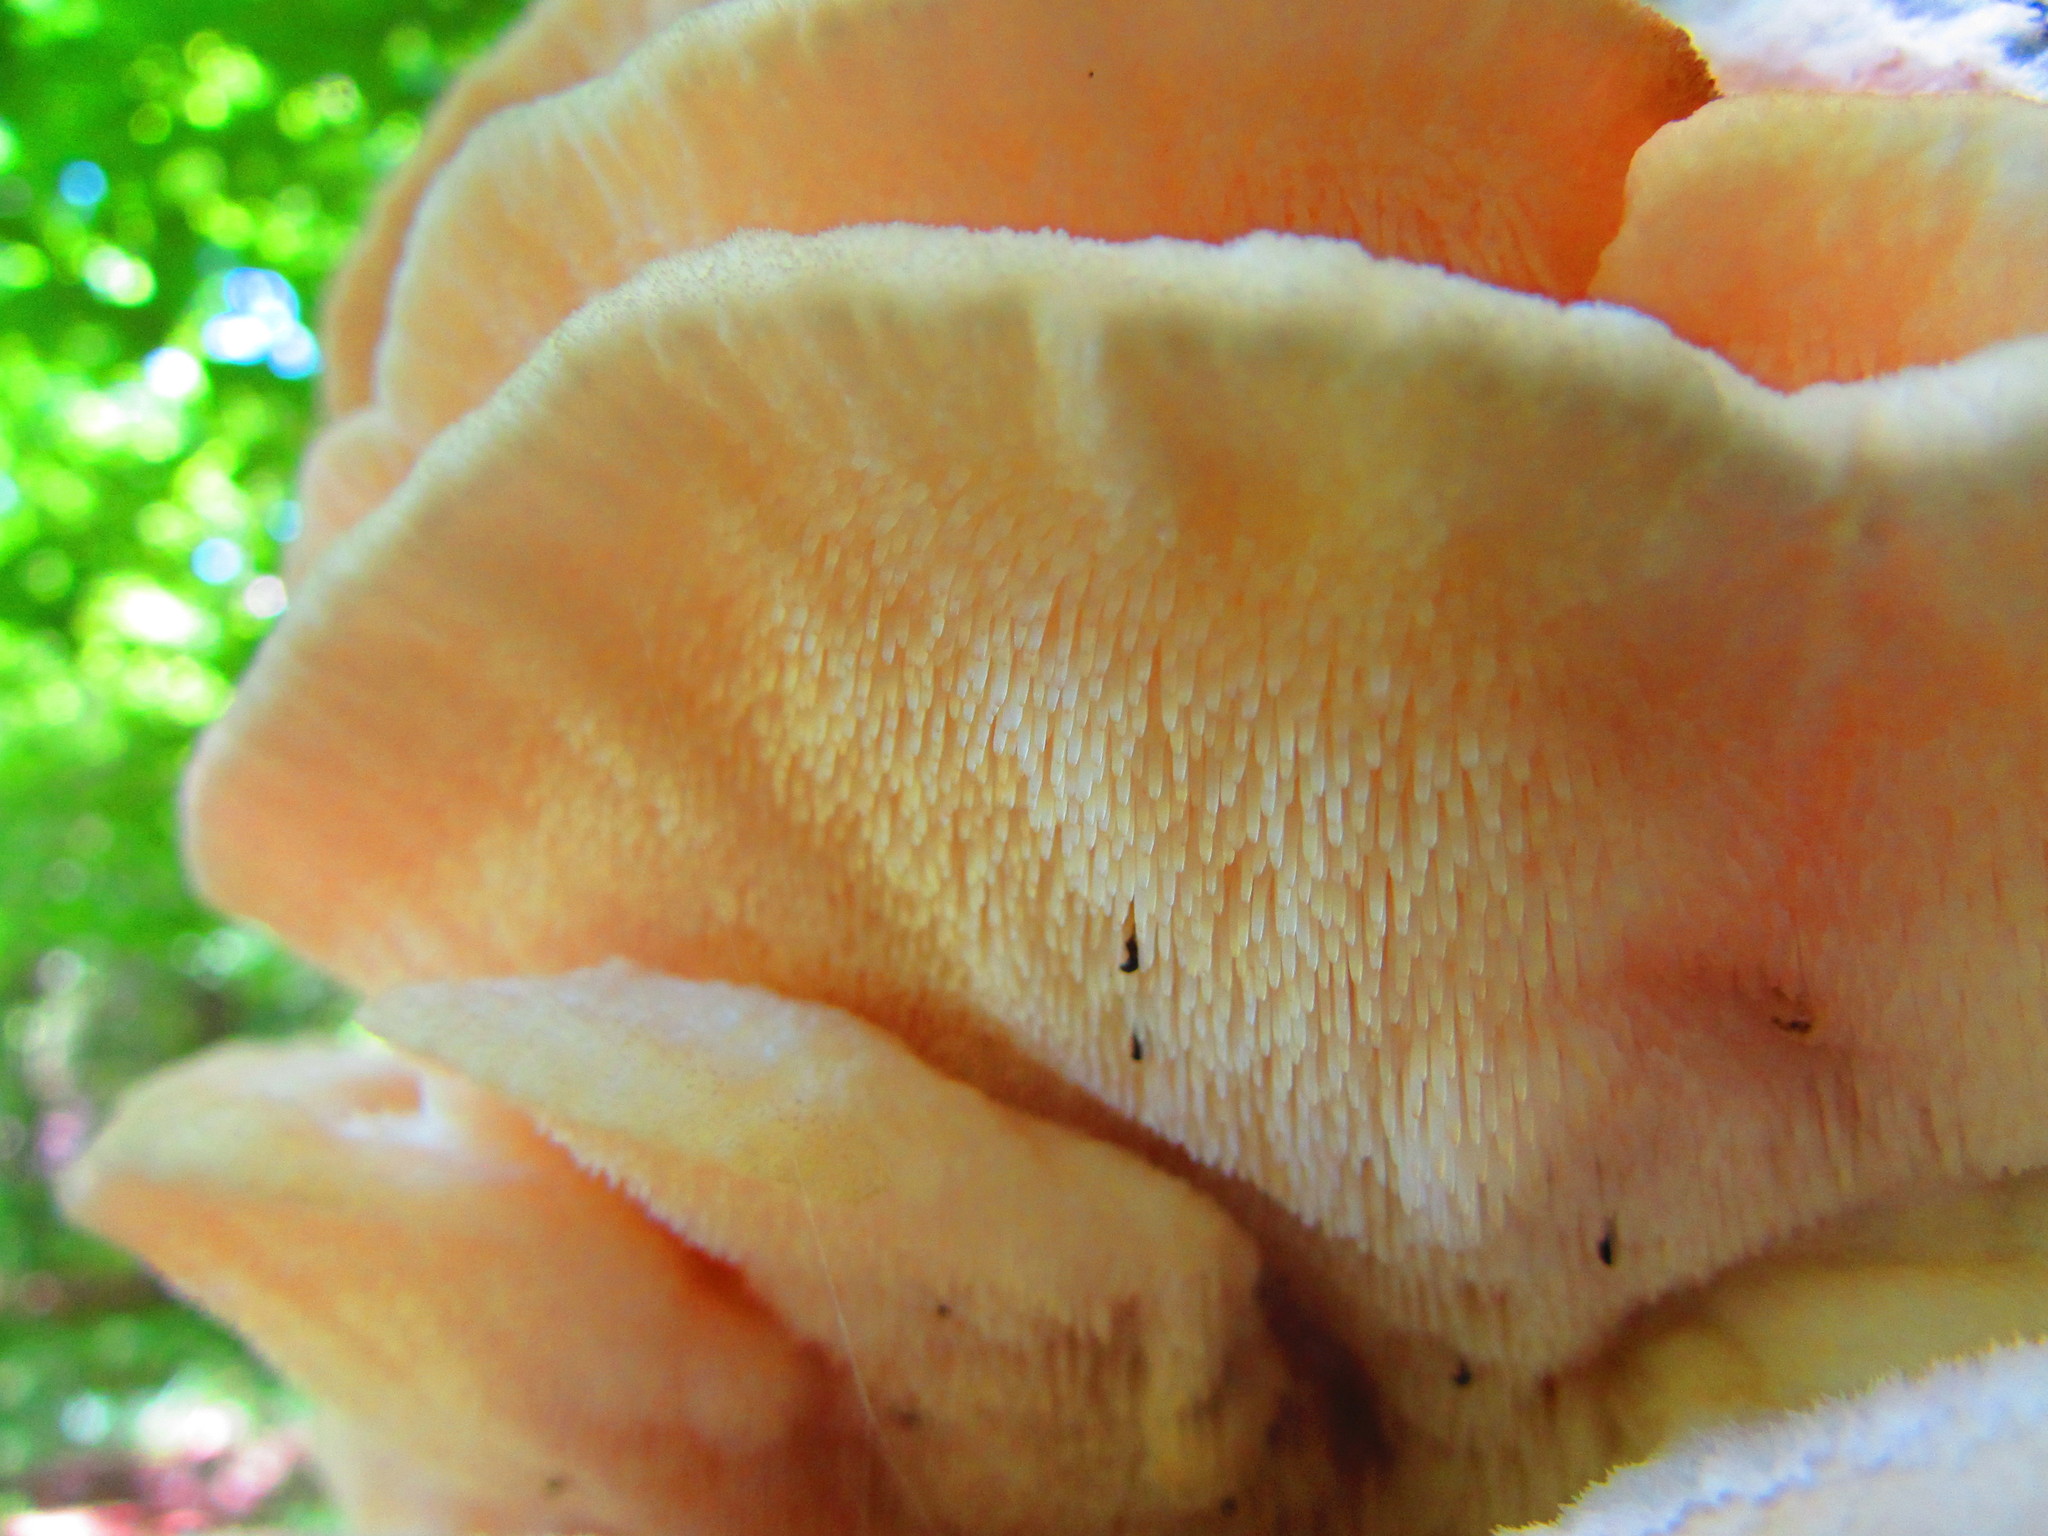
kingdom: Fungi
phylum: Basidiomycota
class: Agaricomycetes
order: Polyporales
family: Meruliaceae
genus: Climacodon
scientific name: Climacodon septentrionalis
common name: Northern tooth
